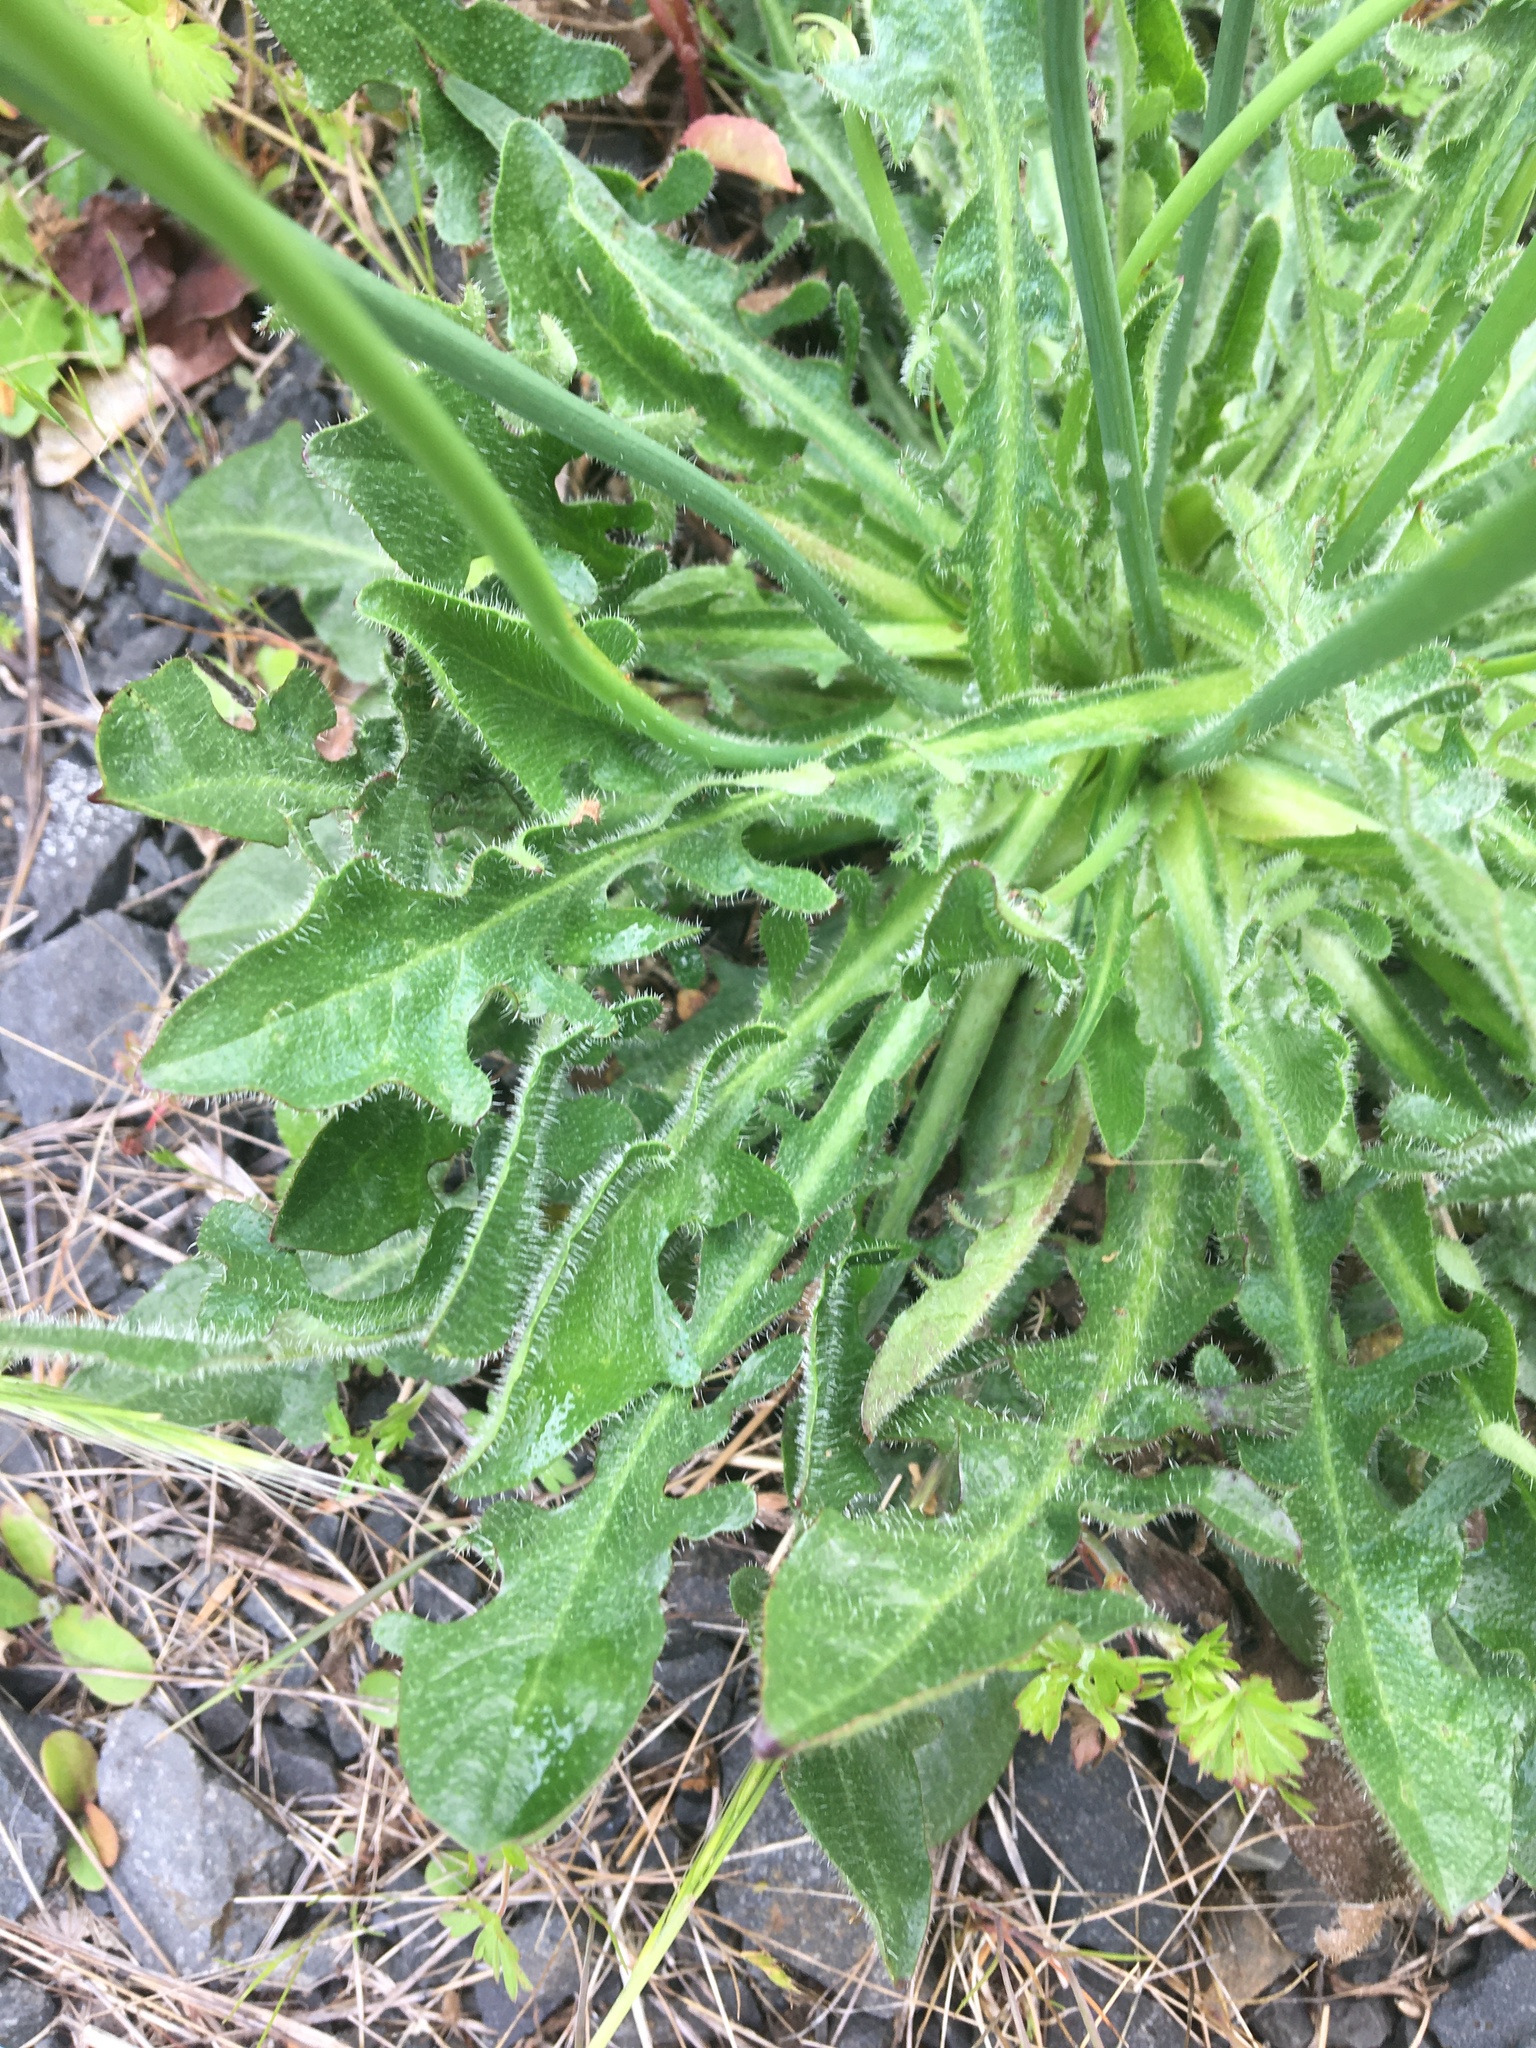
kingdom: Plantae
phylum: Tracheophyta
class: Magnoliopsida
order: Asterales
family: Asteraceae
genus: Hypochaeris
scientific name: Hypochaeris radicata
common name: Flatweed
